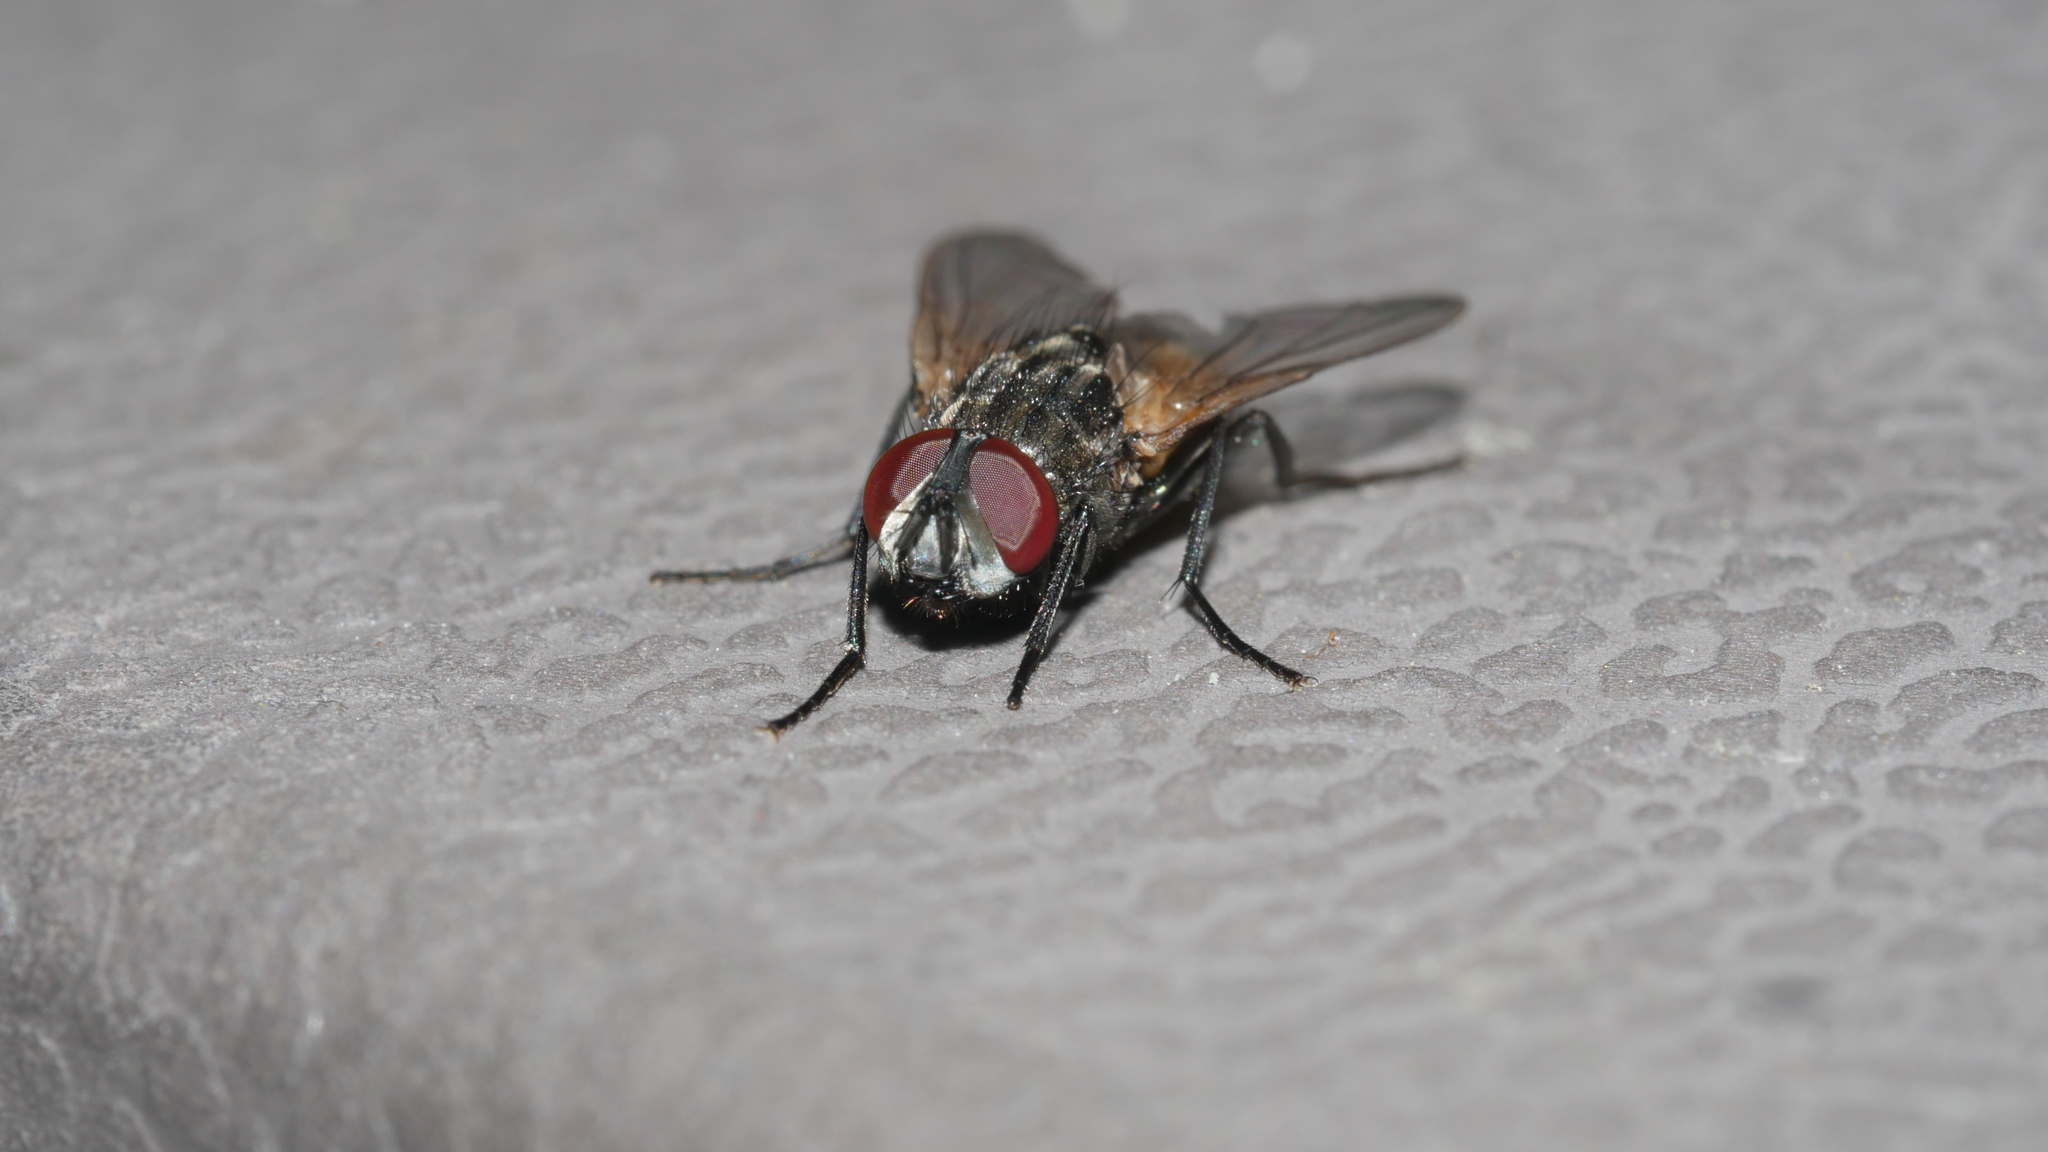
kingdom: Animalia
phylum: Arthropoda
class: Insecta
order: Diptera
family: Muscidae
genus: Musca
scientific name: Musca domestica
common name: House fly
